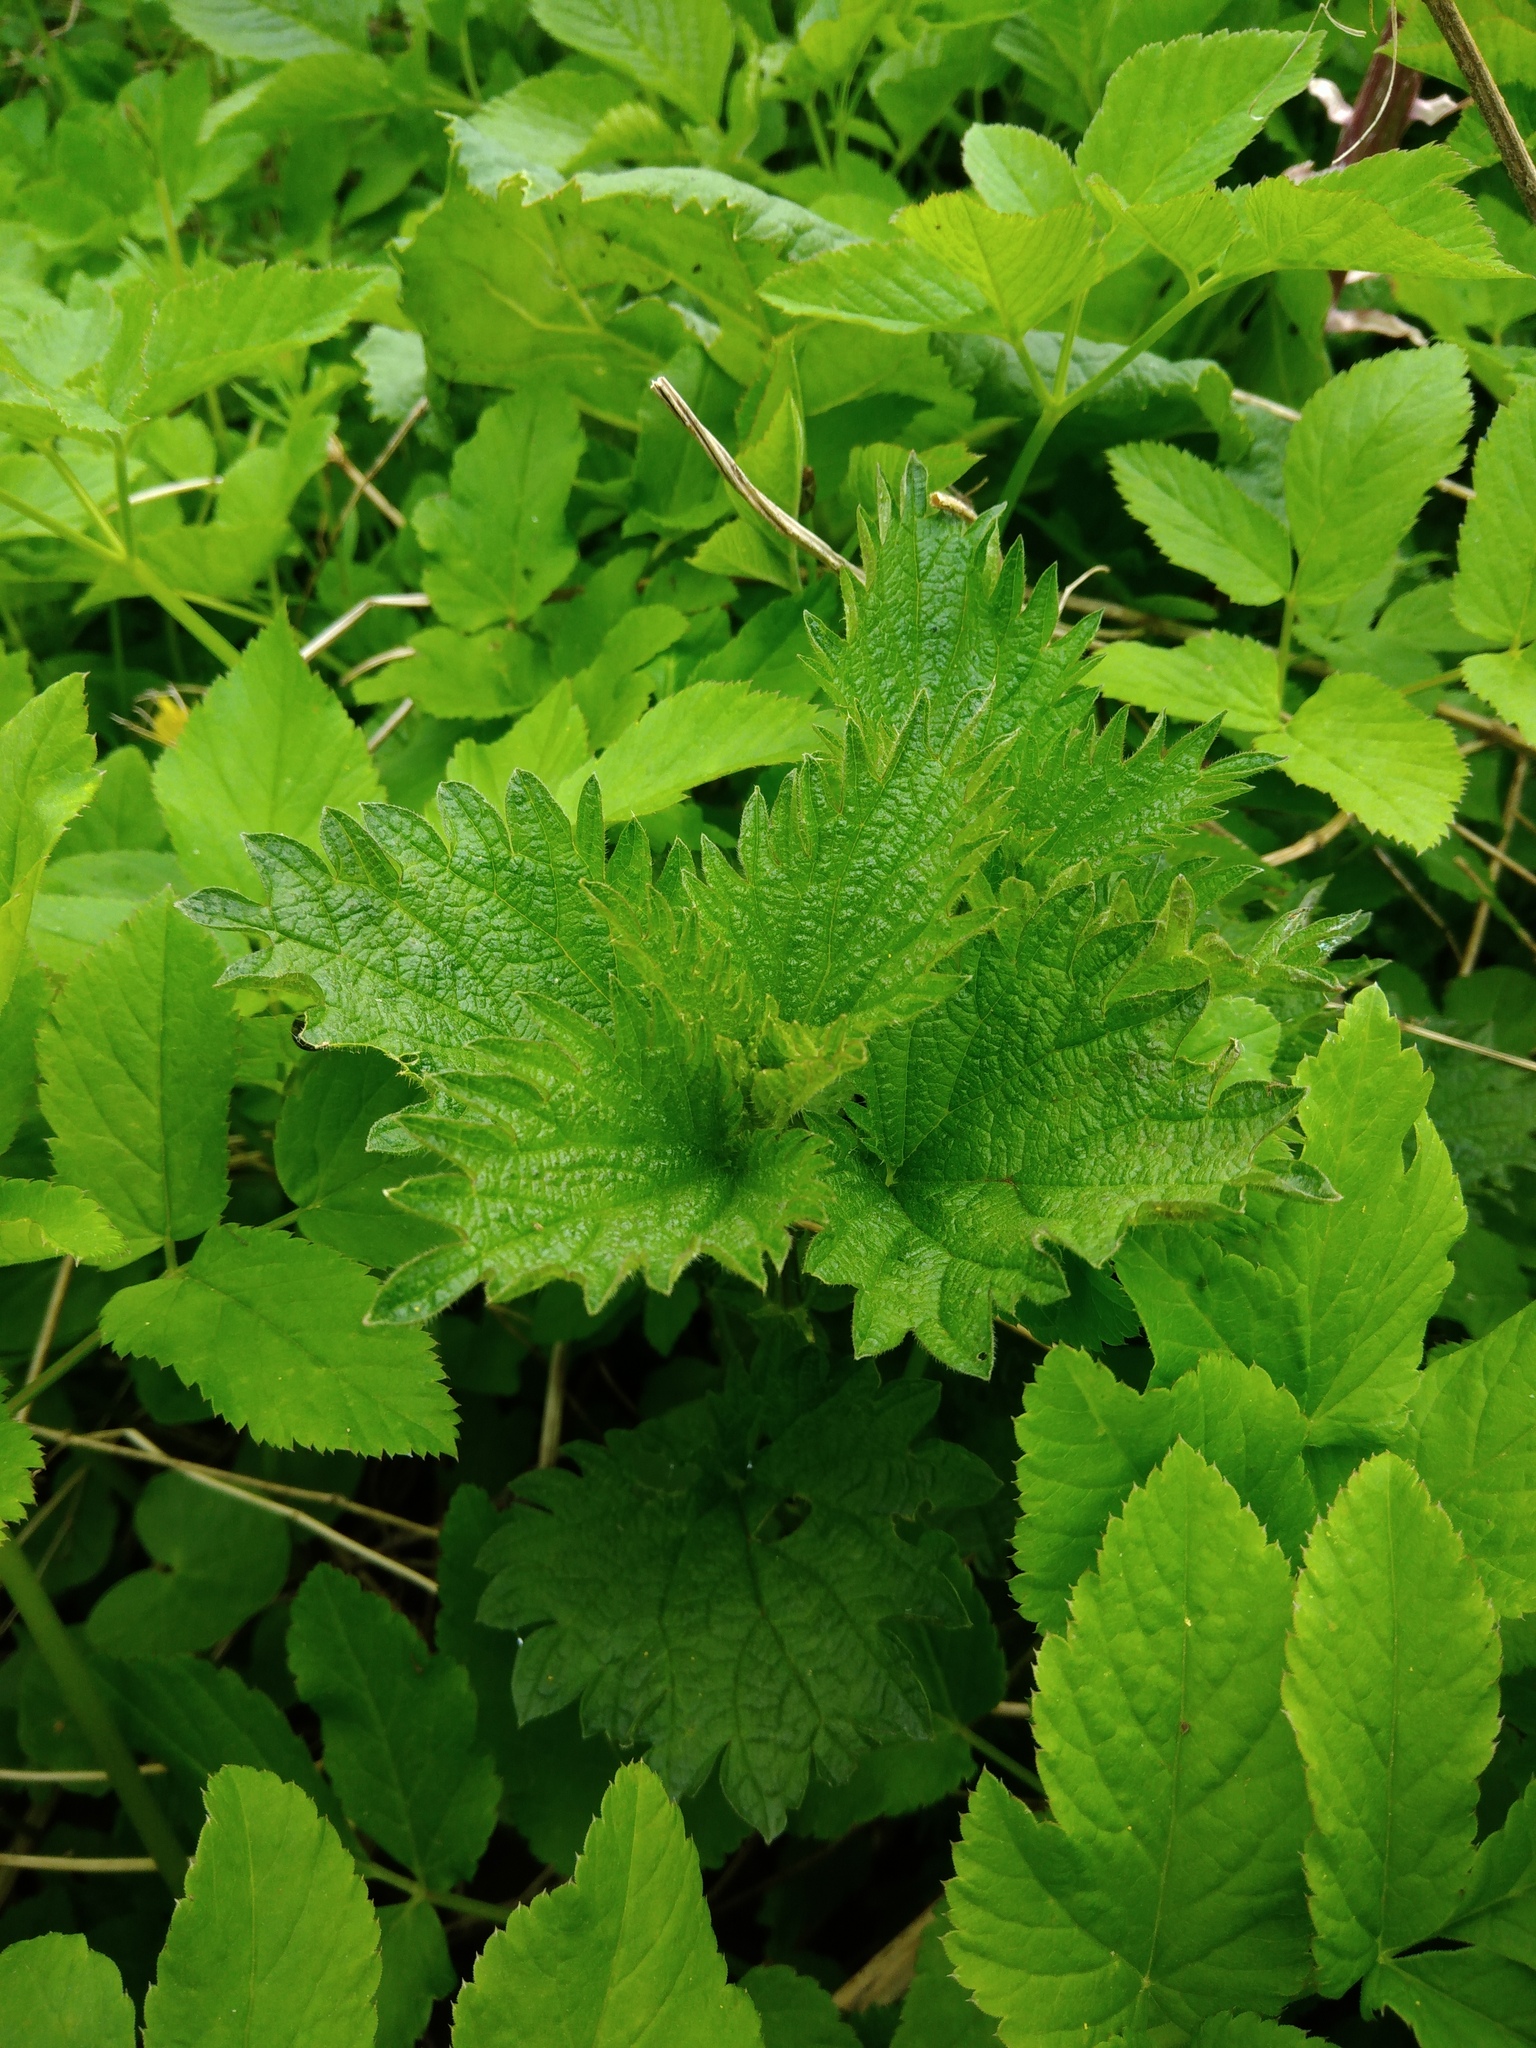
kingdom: Plantae
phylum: Tracheophyta
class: Magnoliopsida
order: Rosales
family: Urticaceae
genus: Urtica
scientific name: Urtica dioica
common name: Common nettle
